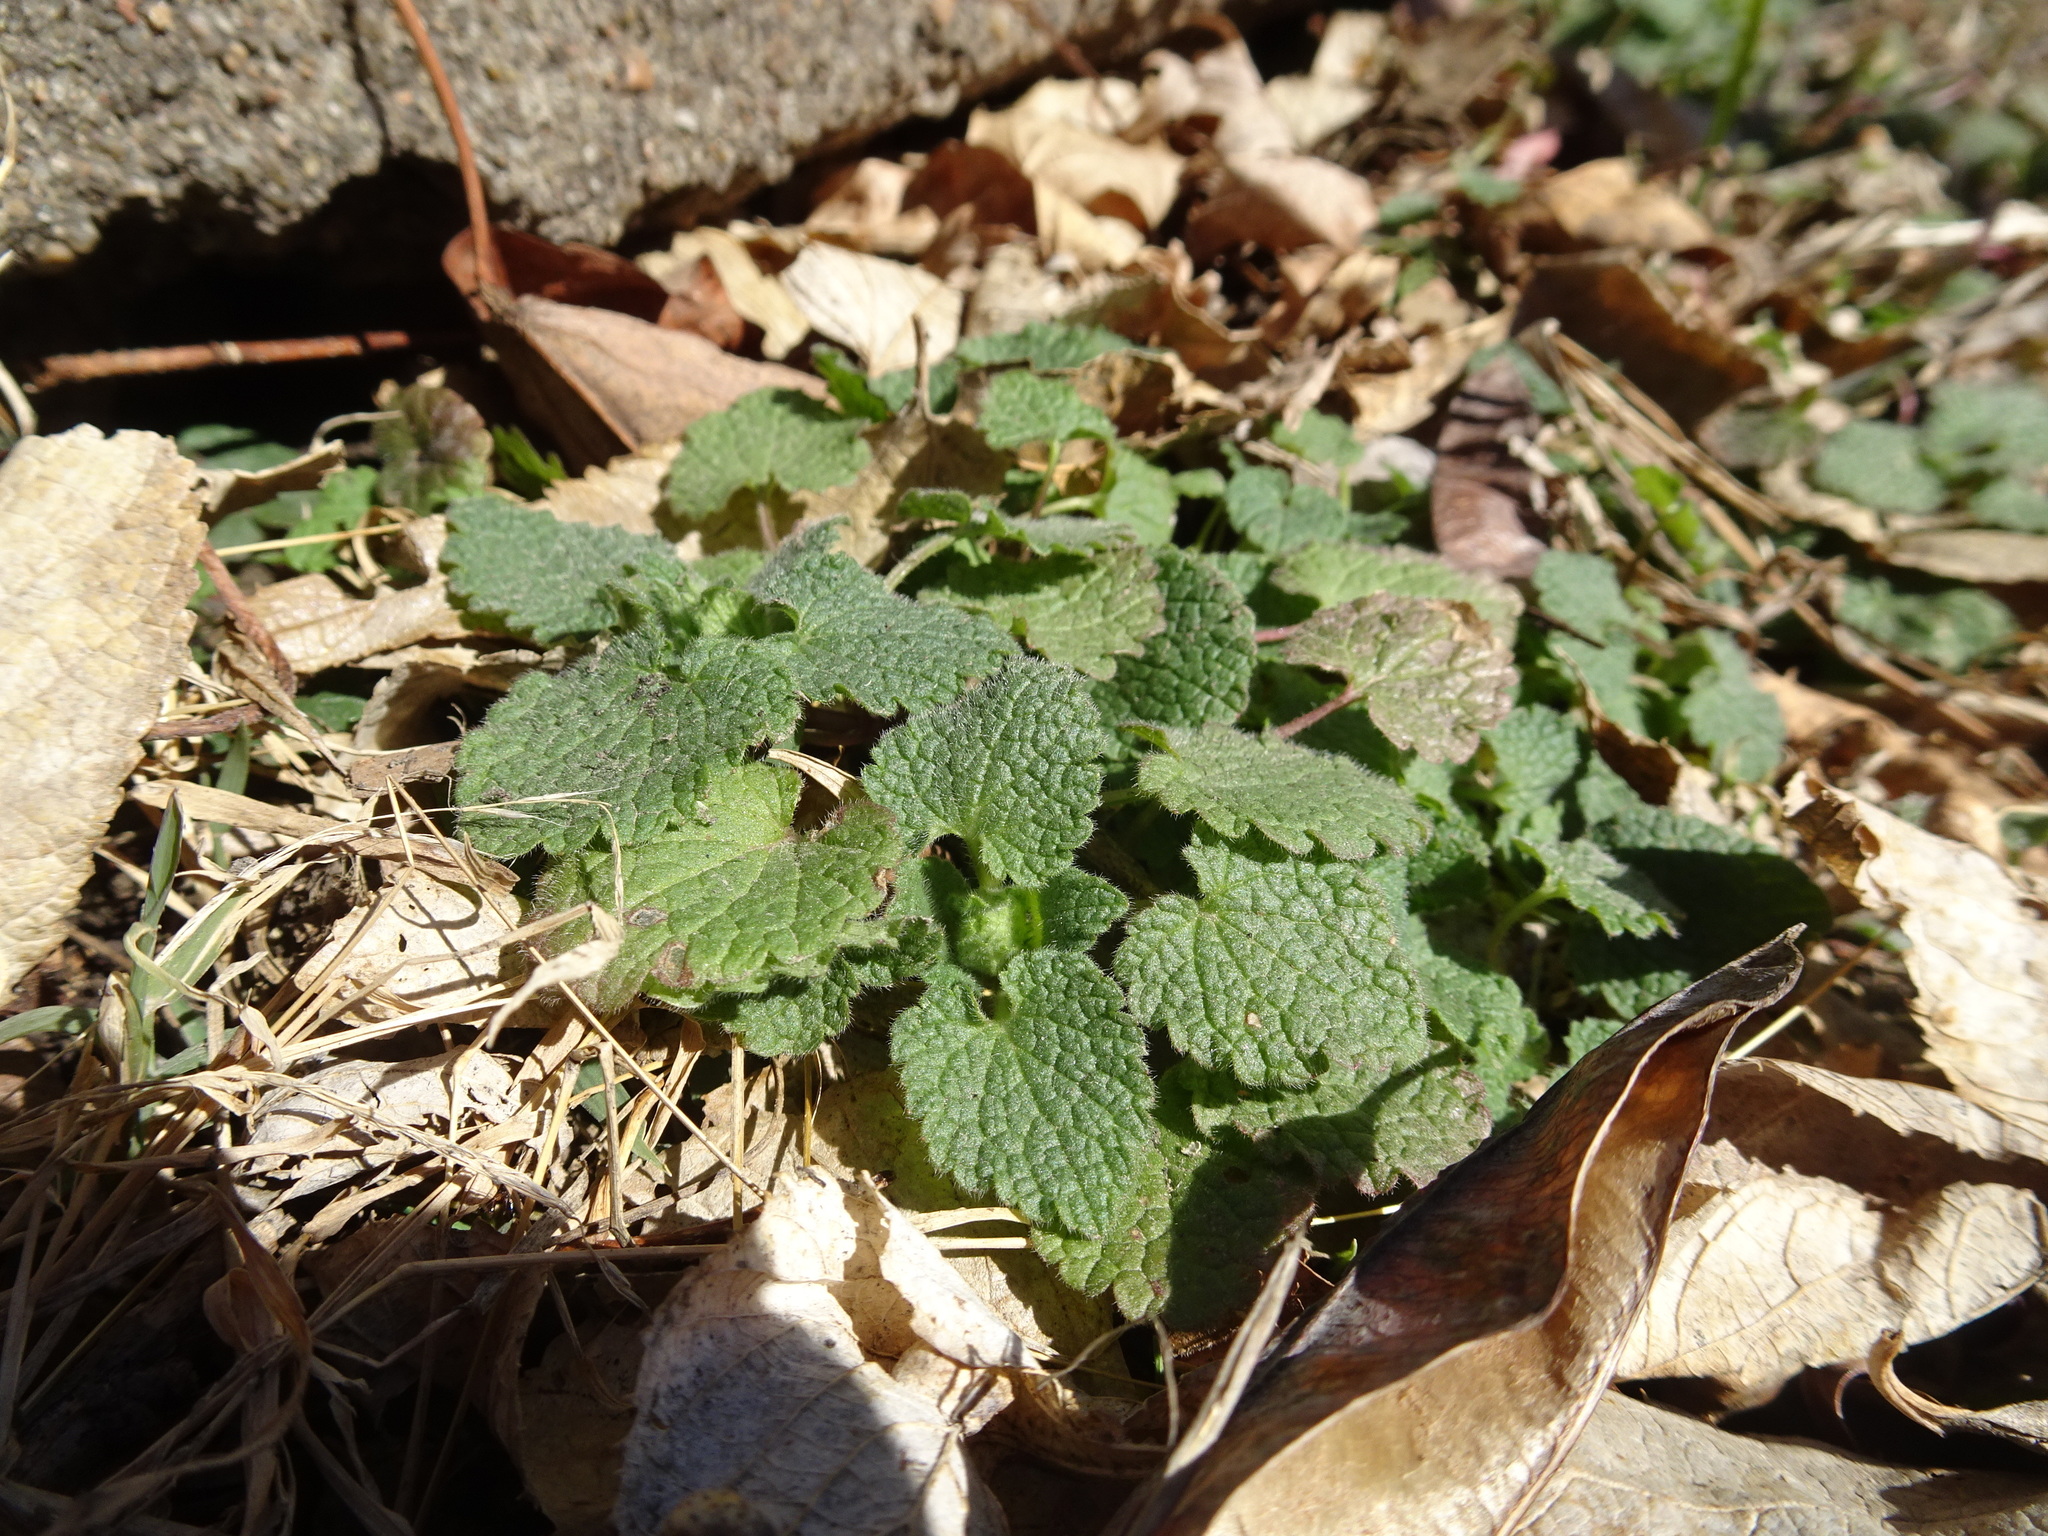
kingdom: Plantae
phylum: Tracheophyta
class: Magnoliopsida
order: Lamiales
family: Lamiaceae
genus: Lamium
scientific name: Lamium purpureum
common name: Red dead-nettle
